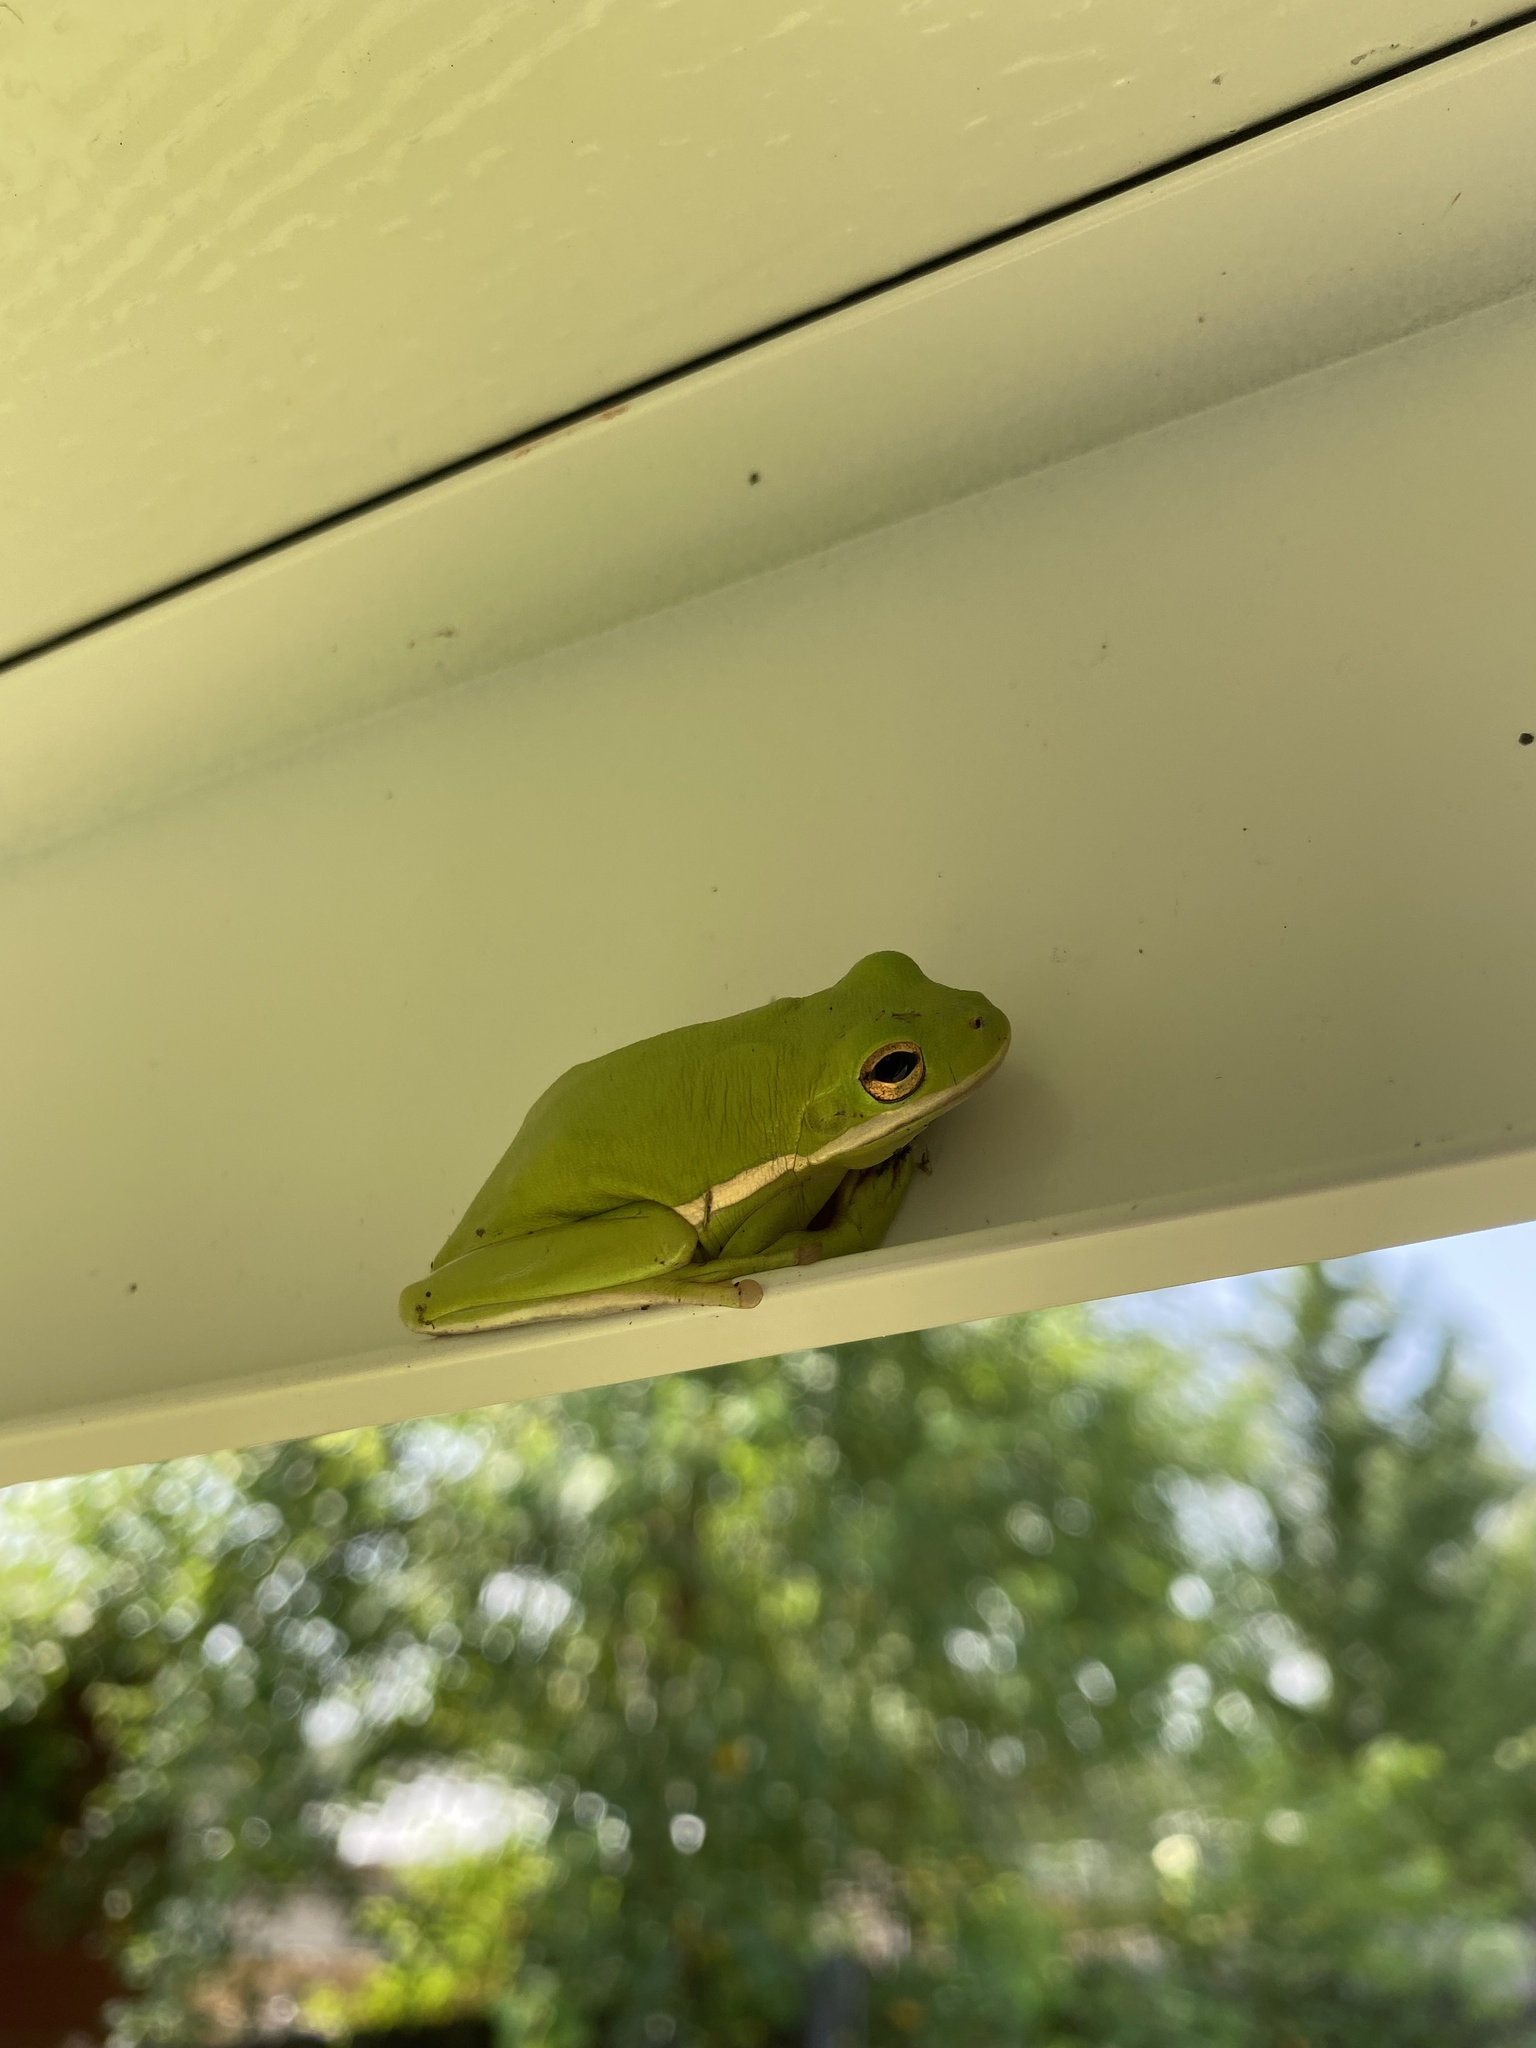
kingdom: Animalia
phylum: Chordata
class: Amphibia
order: Anura
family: Hylidae
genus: Dryophytes
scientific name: Dryophytes cinereus
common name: Green treefrog
